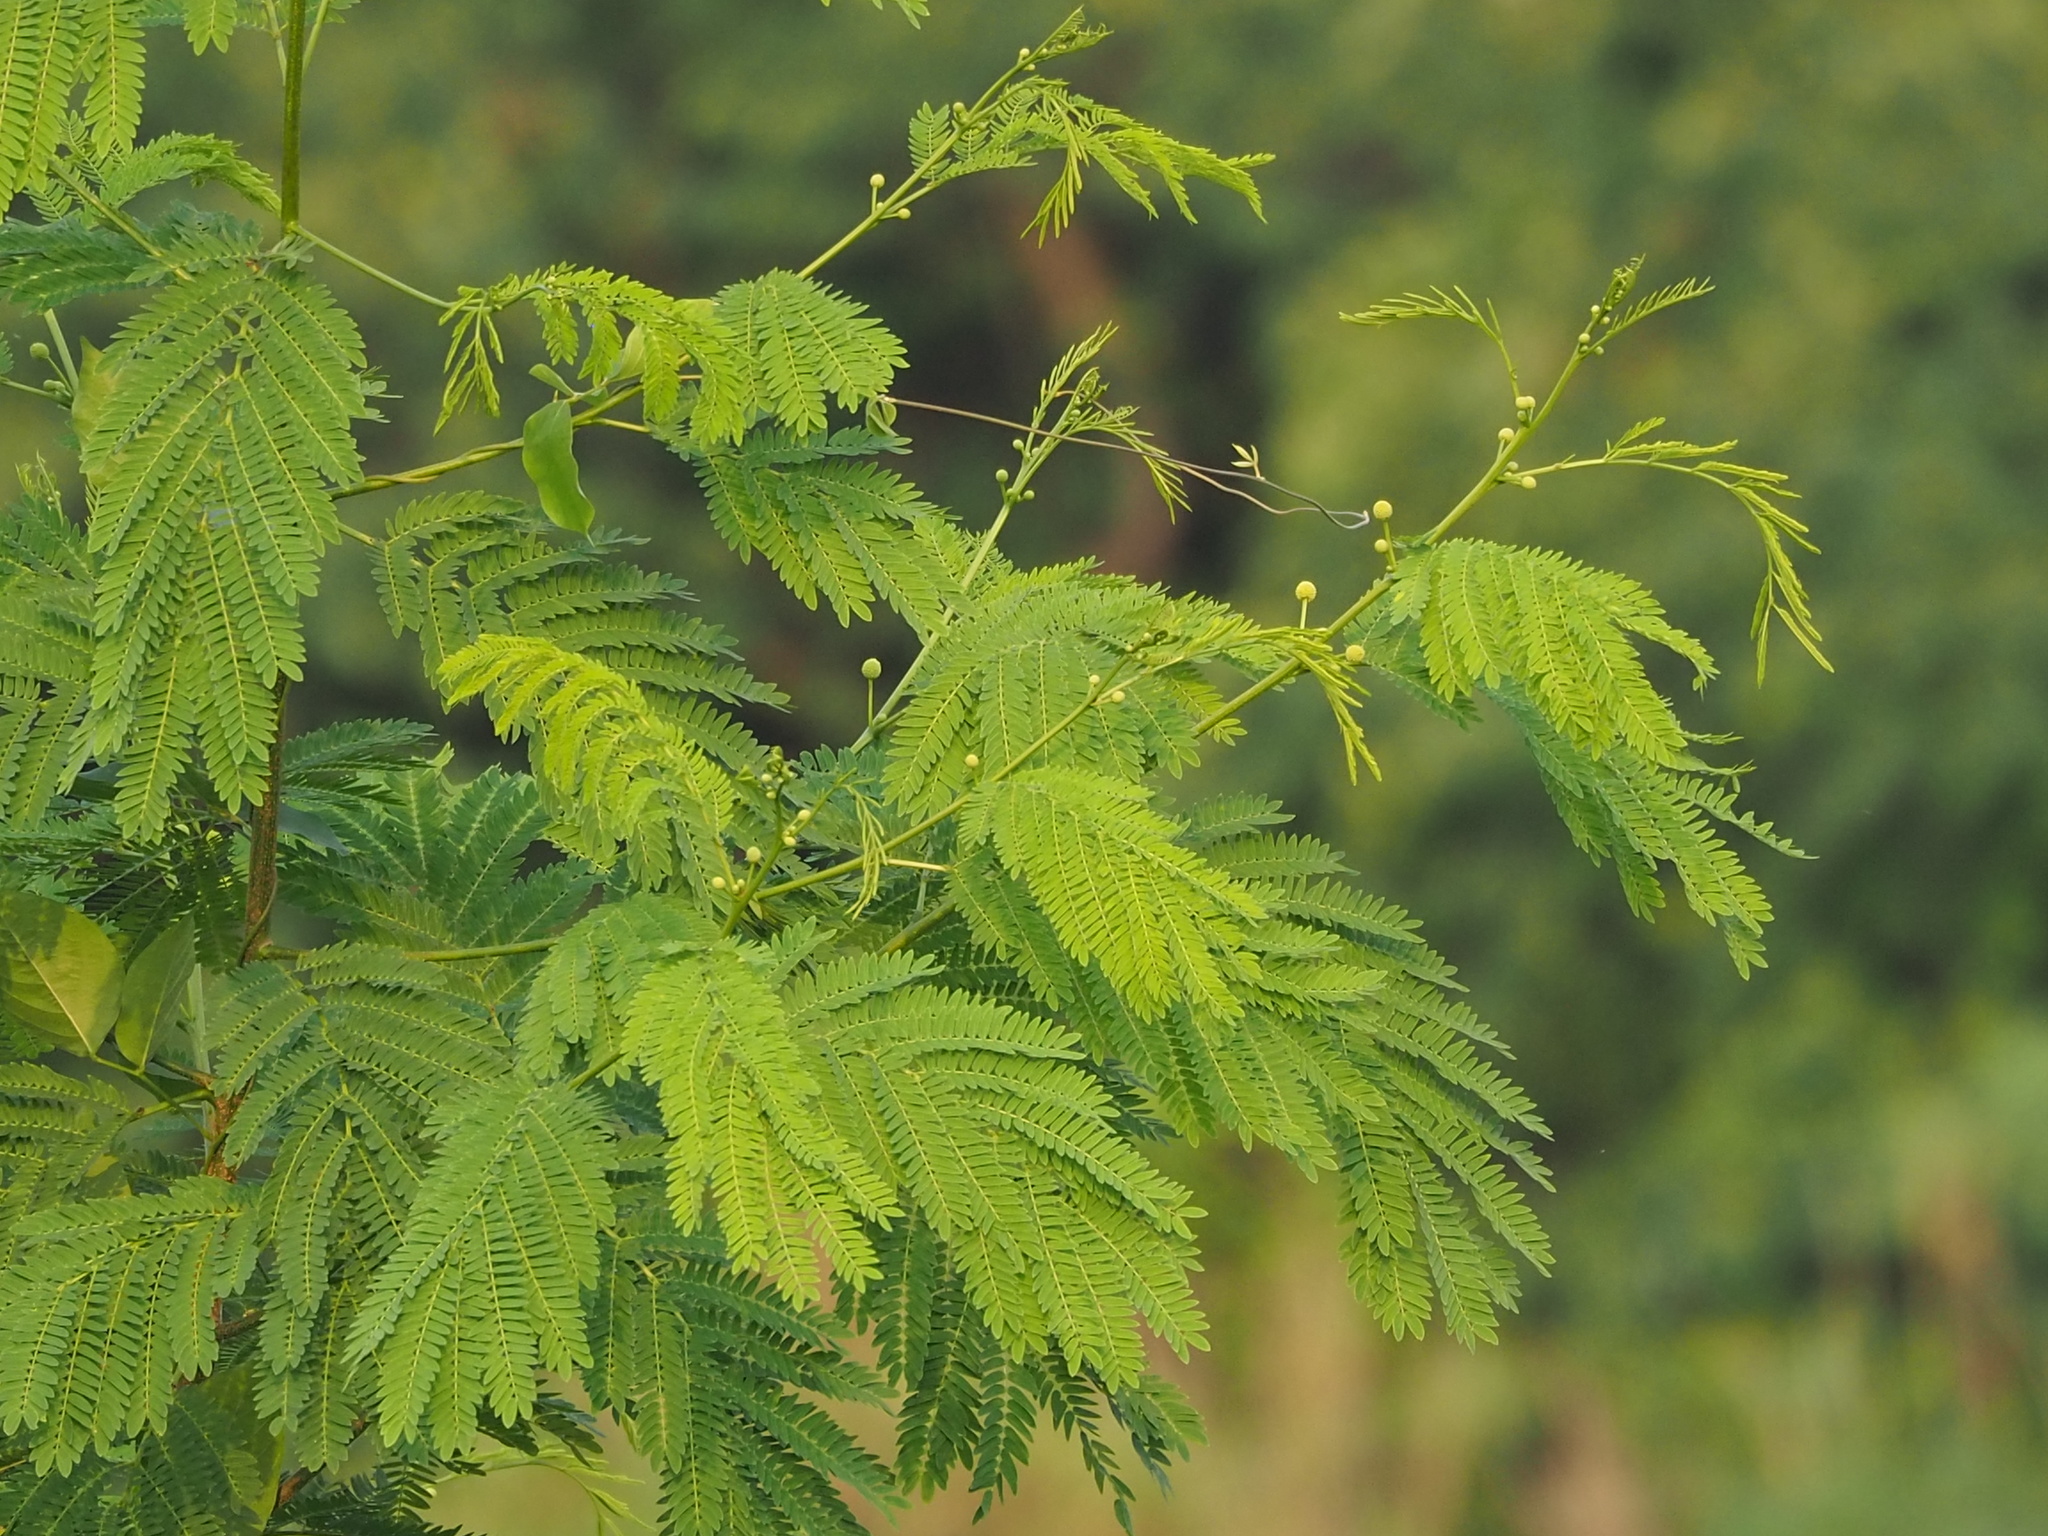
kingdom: Plantae
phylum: Tracheophyta
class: Magnoliopsida
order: Fabales
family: Fabaceae
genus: Leucaena
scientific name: Leucaena leucocephala
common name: White leadtree
